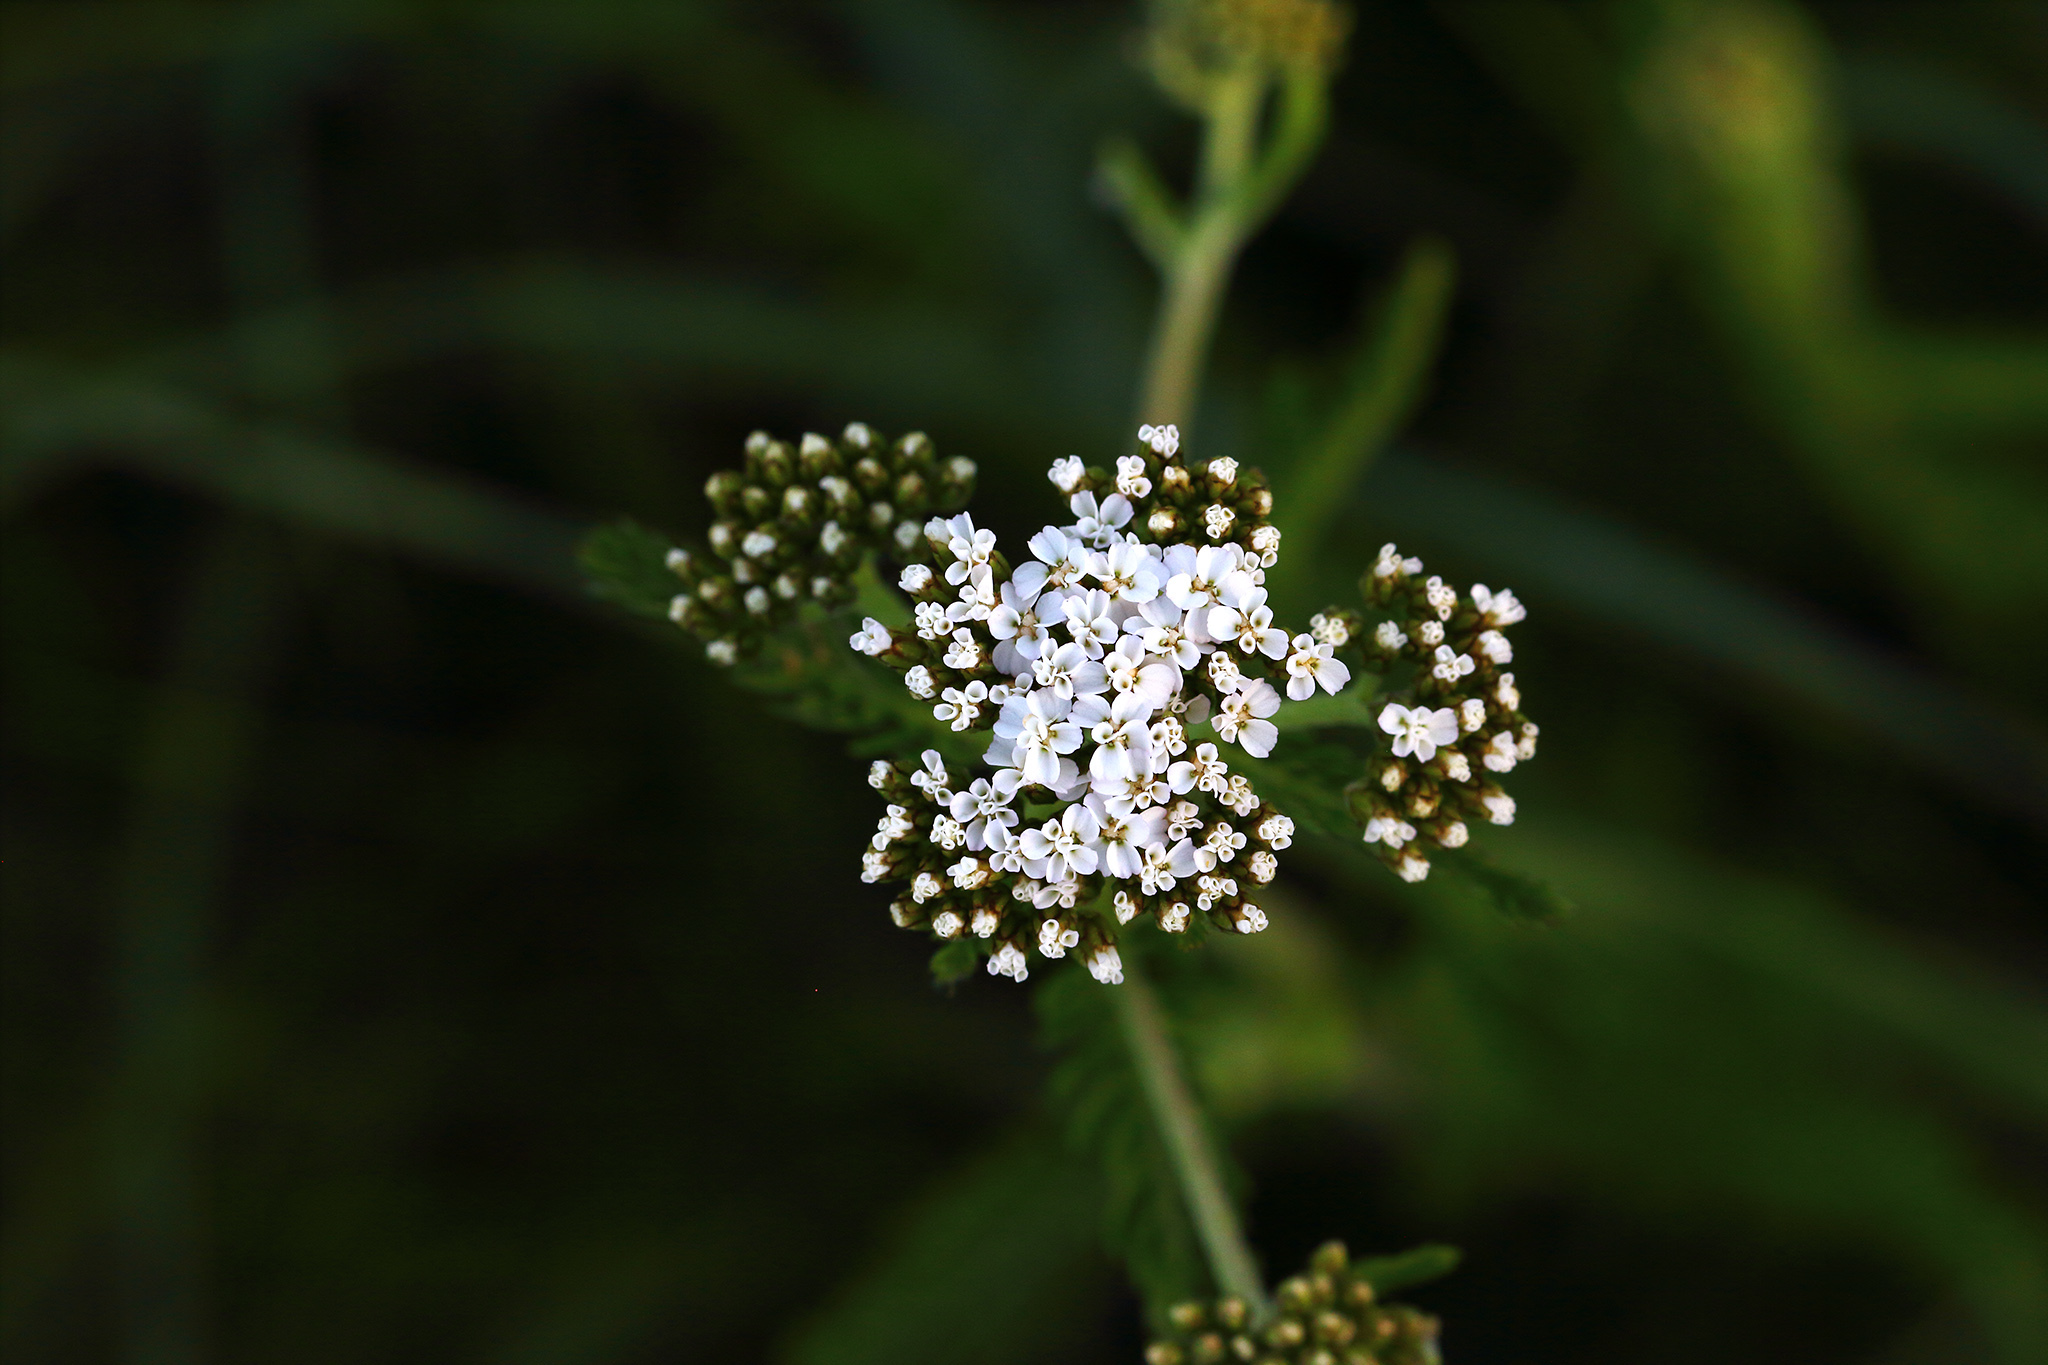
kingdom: Plantae
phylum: Tracheophyta
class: Magnoliopsida
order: Asterales
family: Asteraceae
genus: Achillea
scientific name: Achillea millefolium
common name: Yarrow
